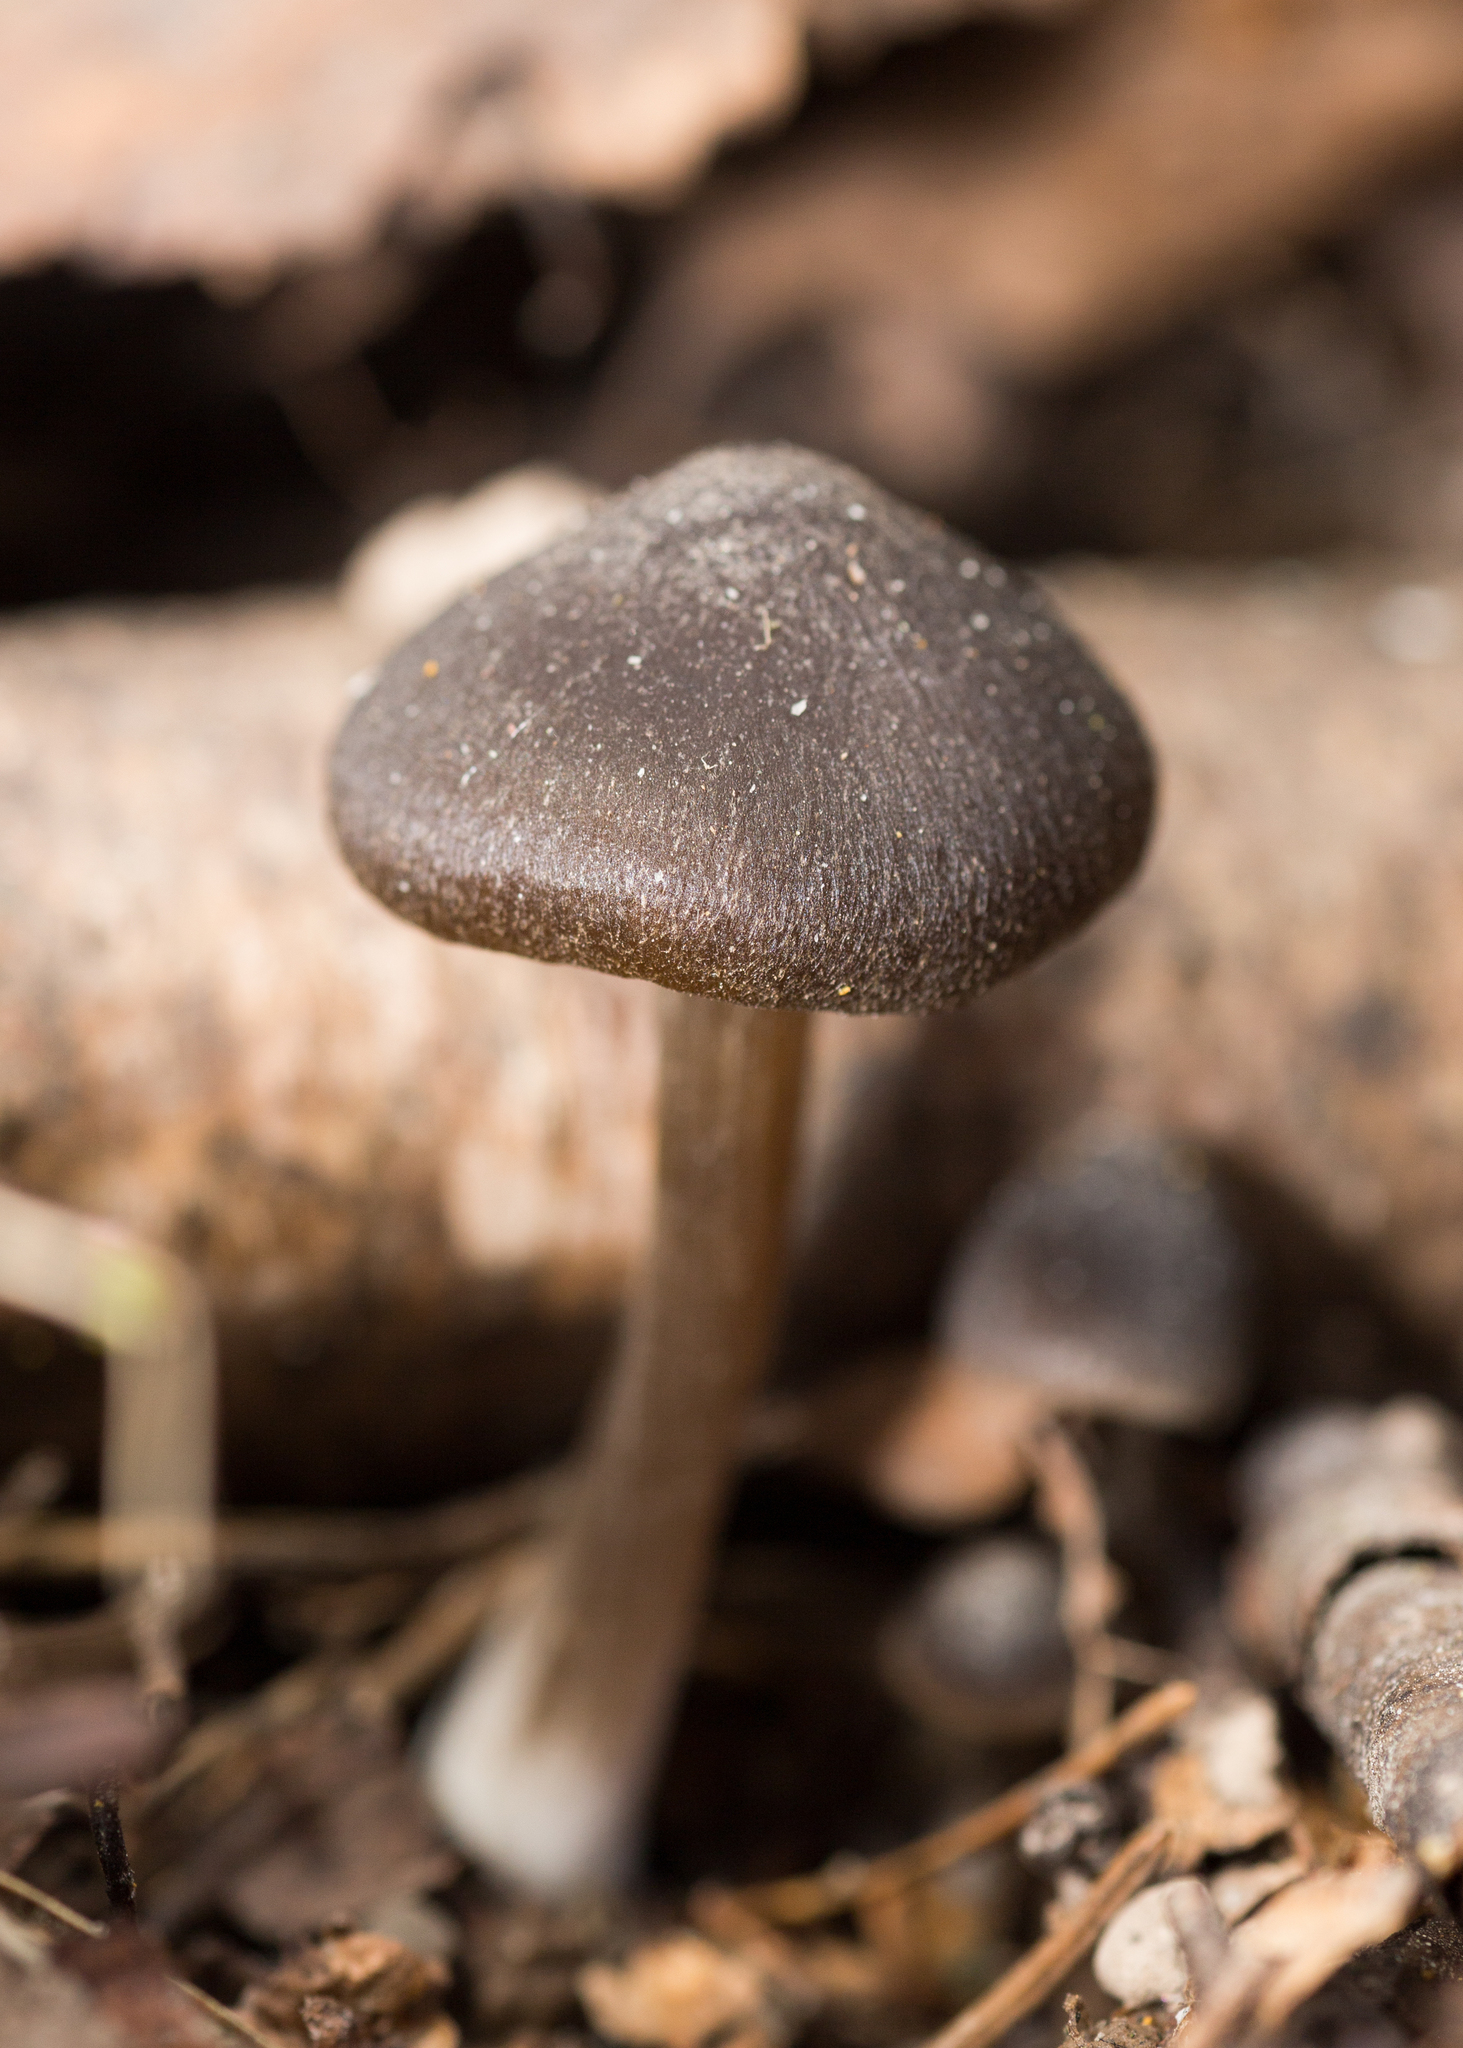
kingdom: Fungi
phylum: Basidiomycota
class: Agaricomycetes
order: Agaricales
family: Entolomataceae
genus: Entoloma
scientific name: Entoloma vernum
